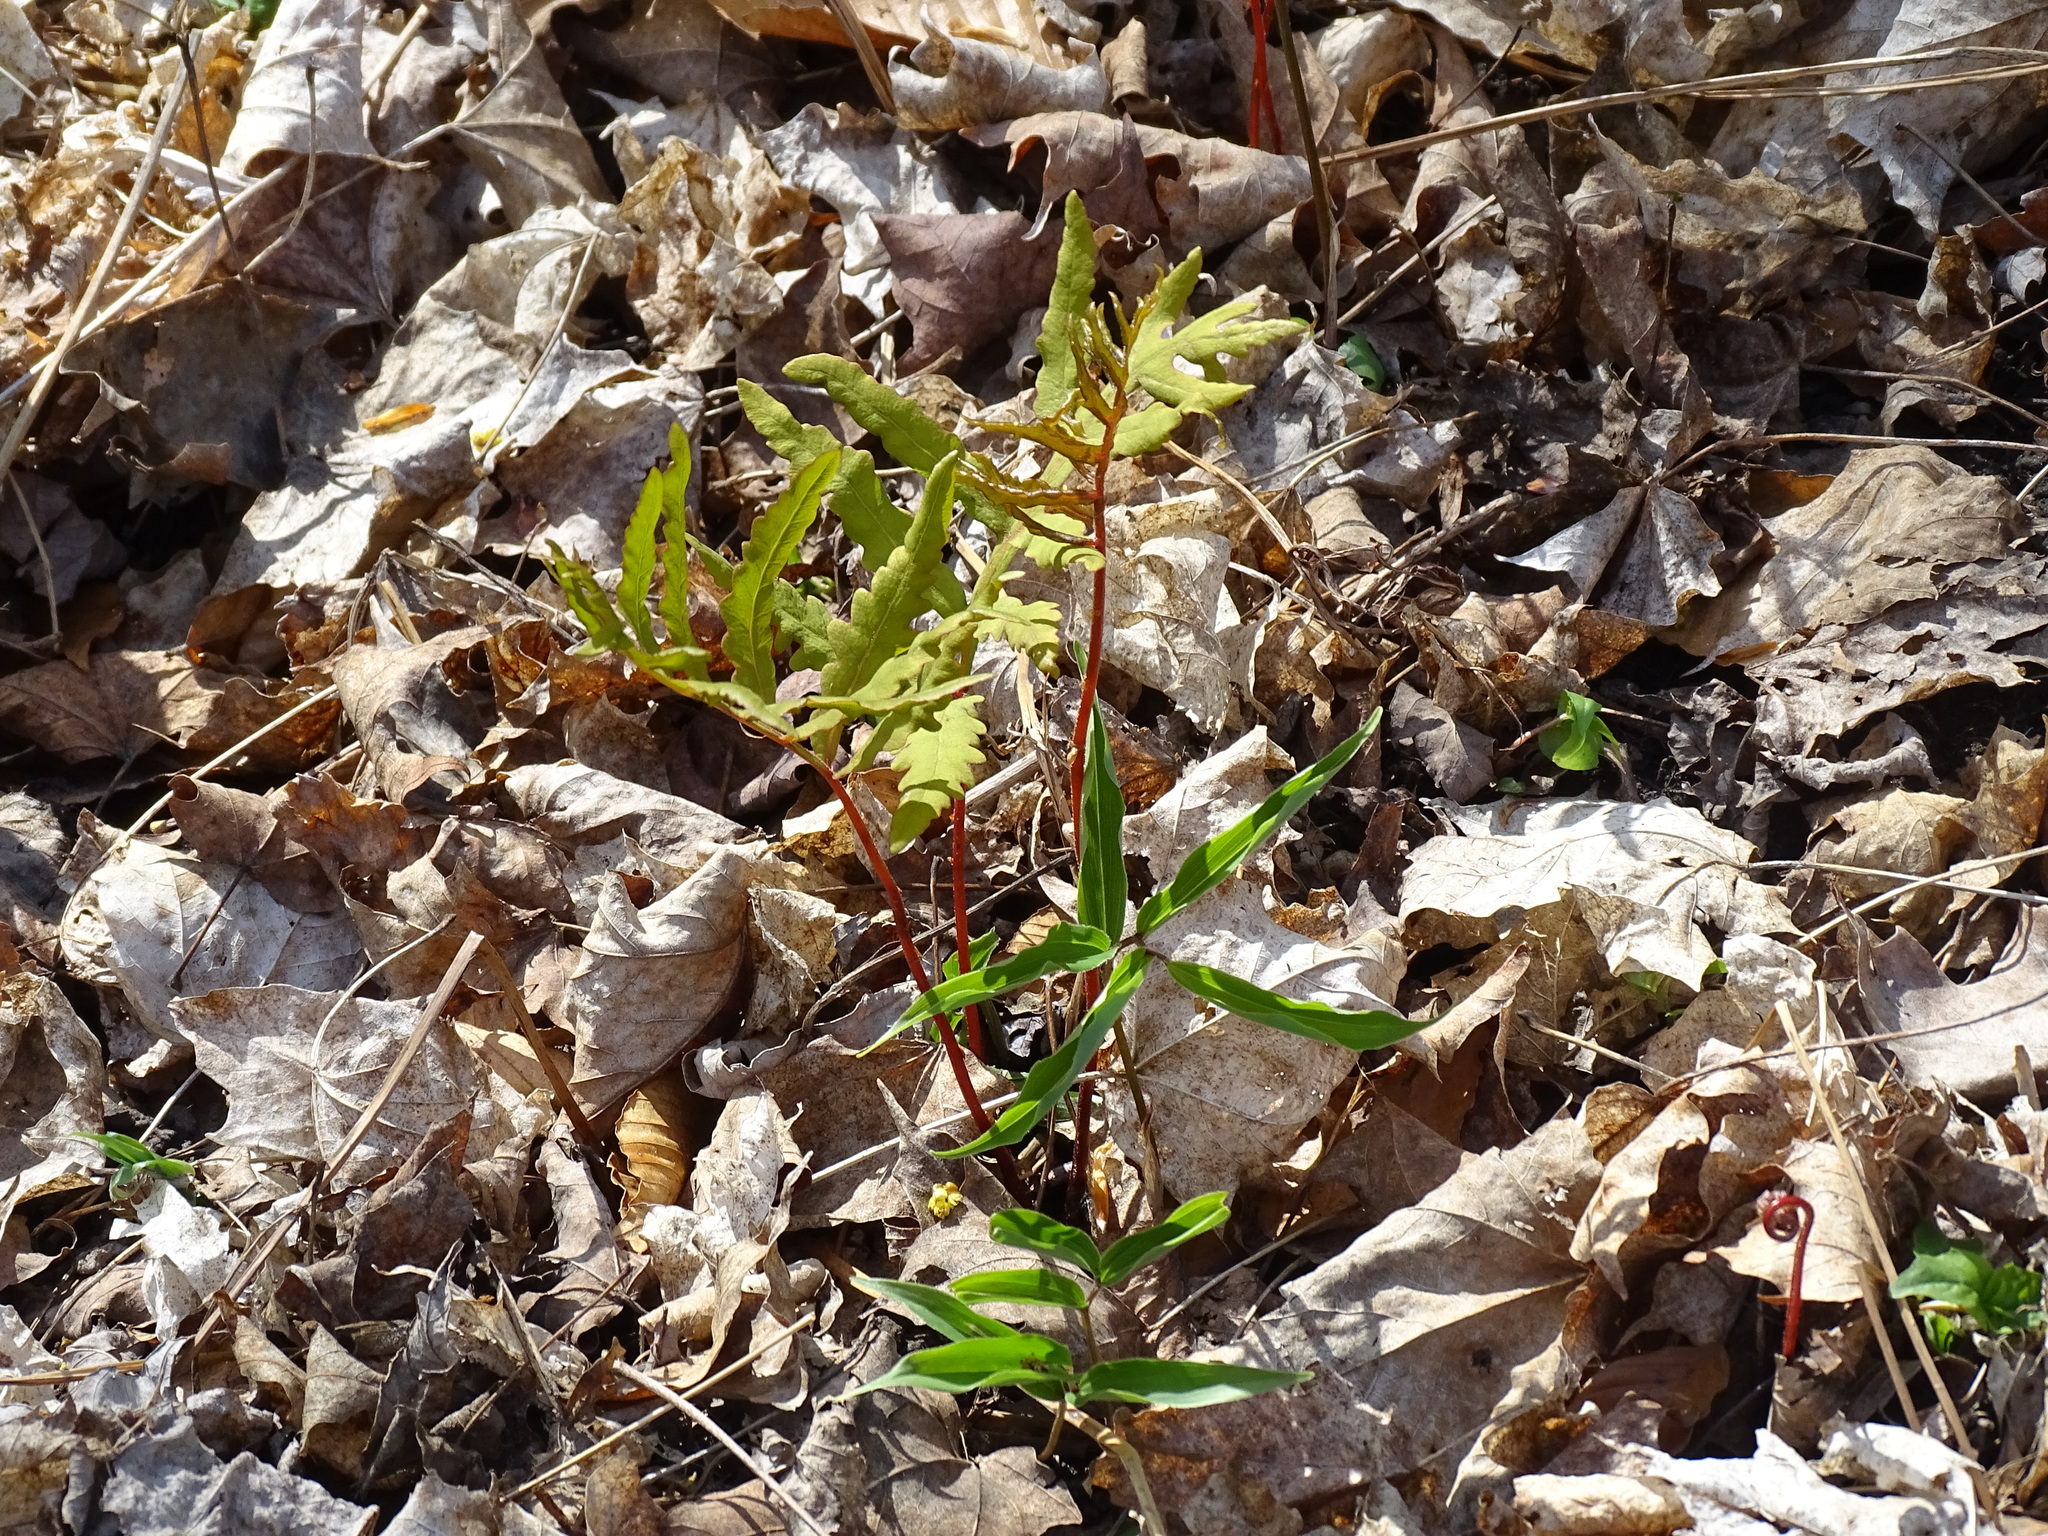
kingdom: Plantae
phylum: Tracheophyta
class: Polypodiopsida
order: Polypodiales
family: Onocleaceae
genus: Onoclea
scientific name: Onoclea sensibilis
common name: Sensitive fern
